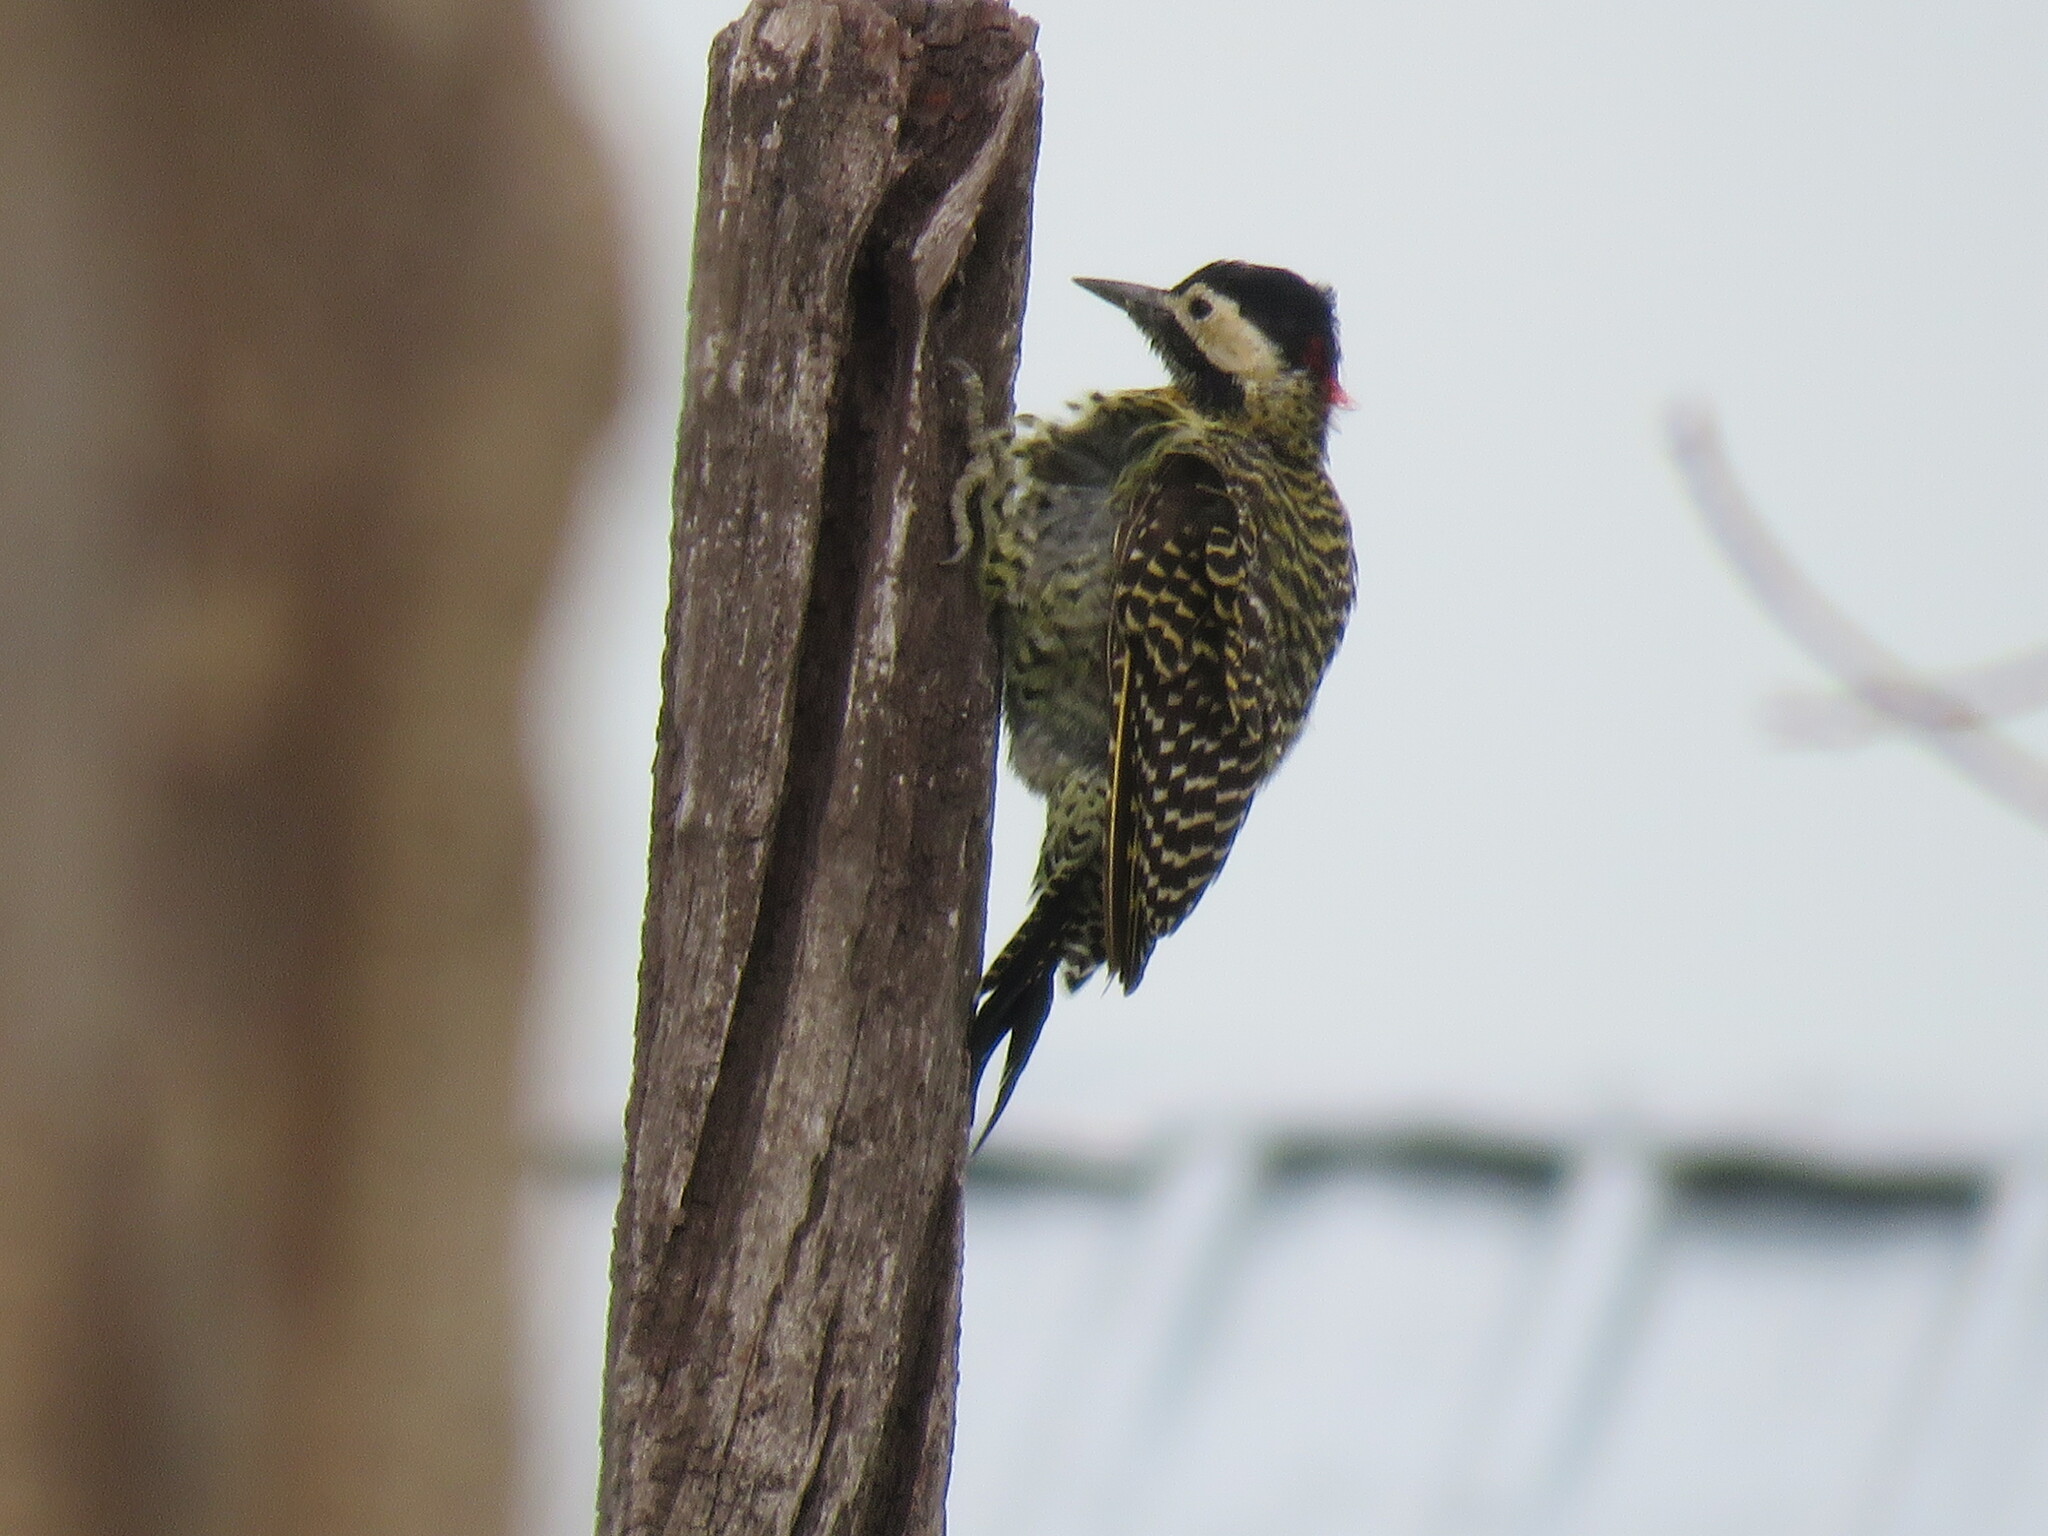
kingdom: Animalia
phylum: Chordata
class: Aves
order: Piciformes
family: Picidae
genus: Colaptes
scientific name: Colaptes melanochloros
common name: Green-barred woodpecker
